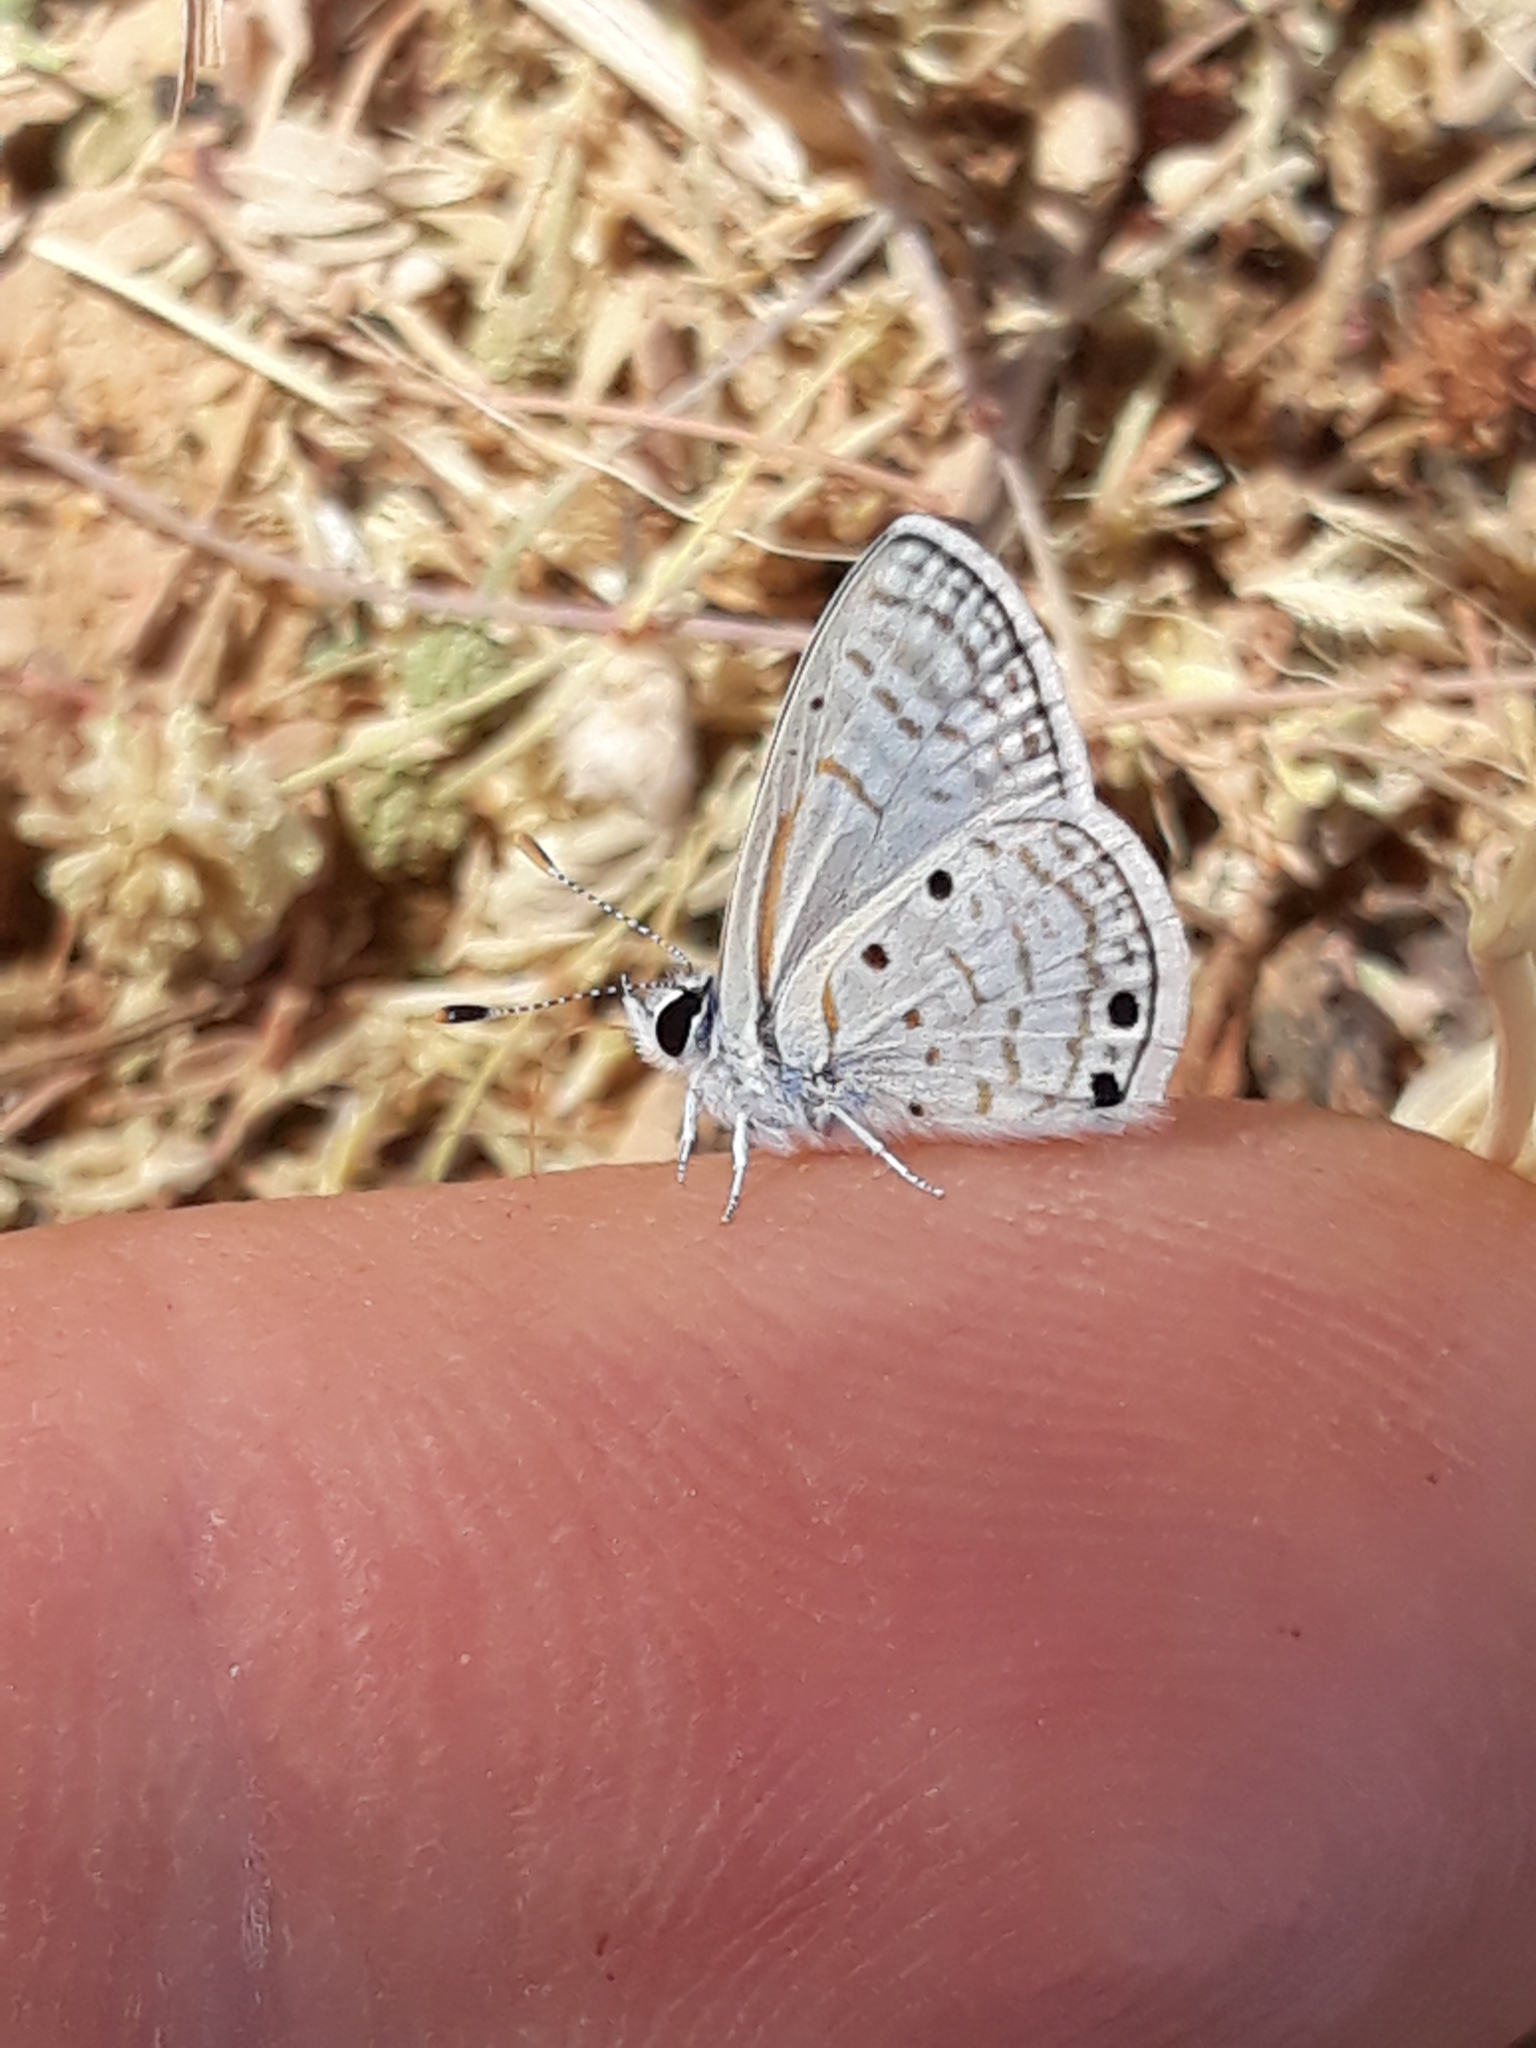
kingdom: Animalia
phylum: Arthropoda
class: Insecta
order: Lepidoptera
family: Lycaenidae
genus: Azanus
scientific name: Azanus ubaldus
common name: Desert babul blue
